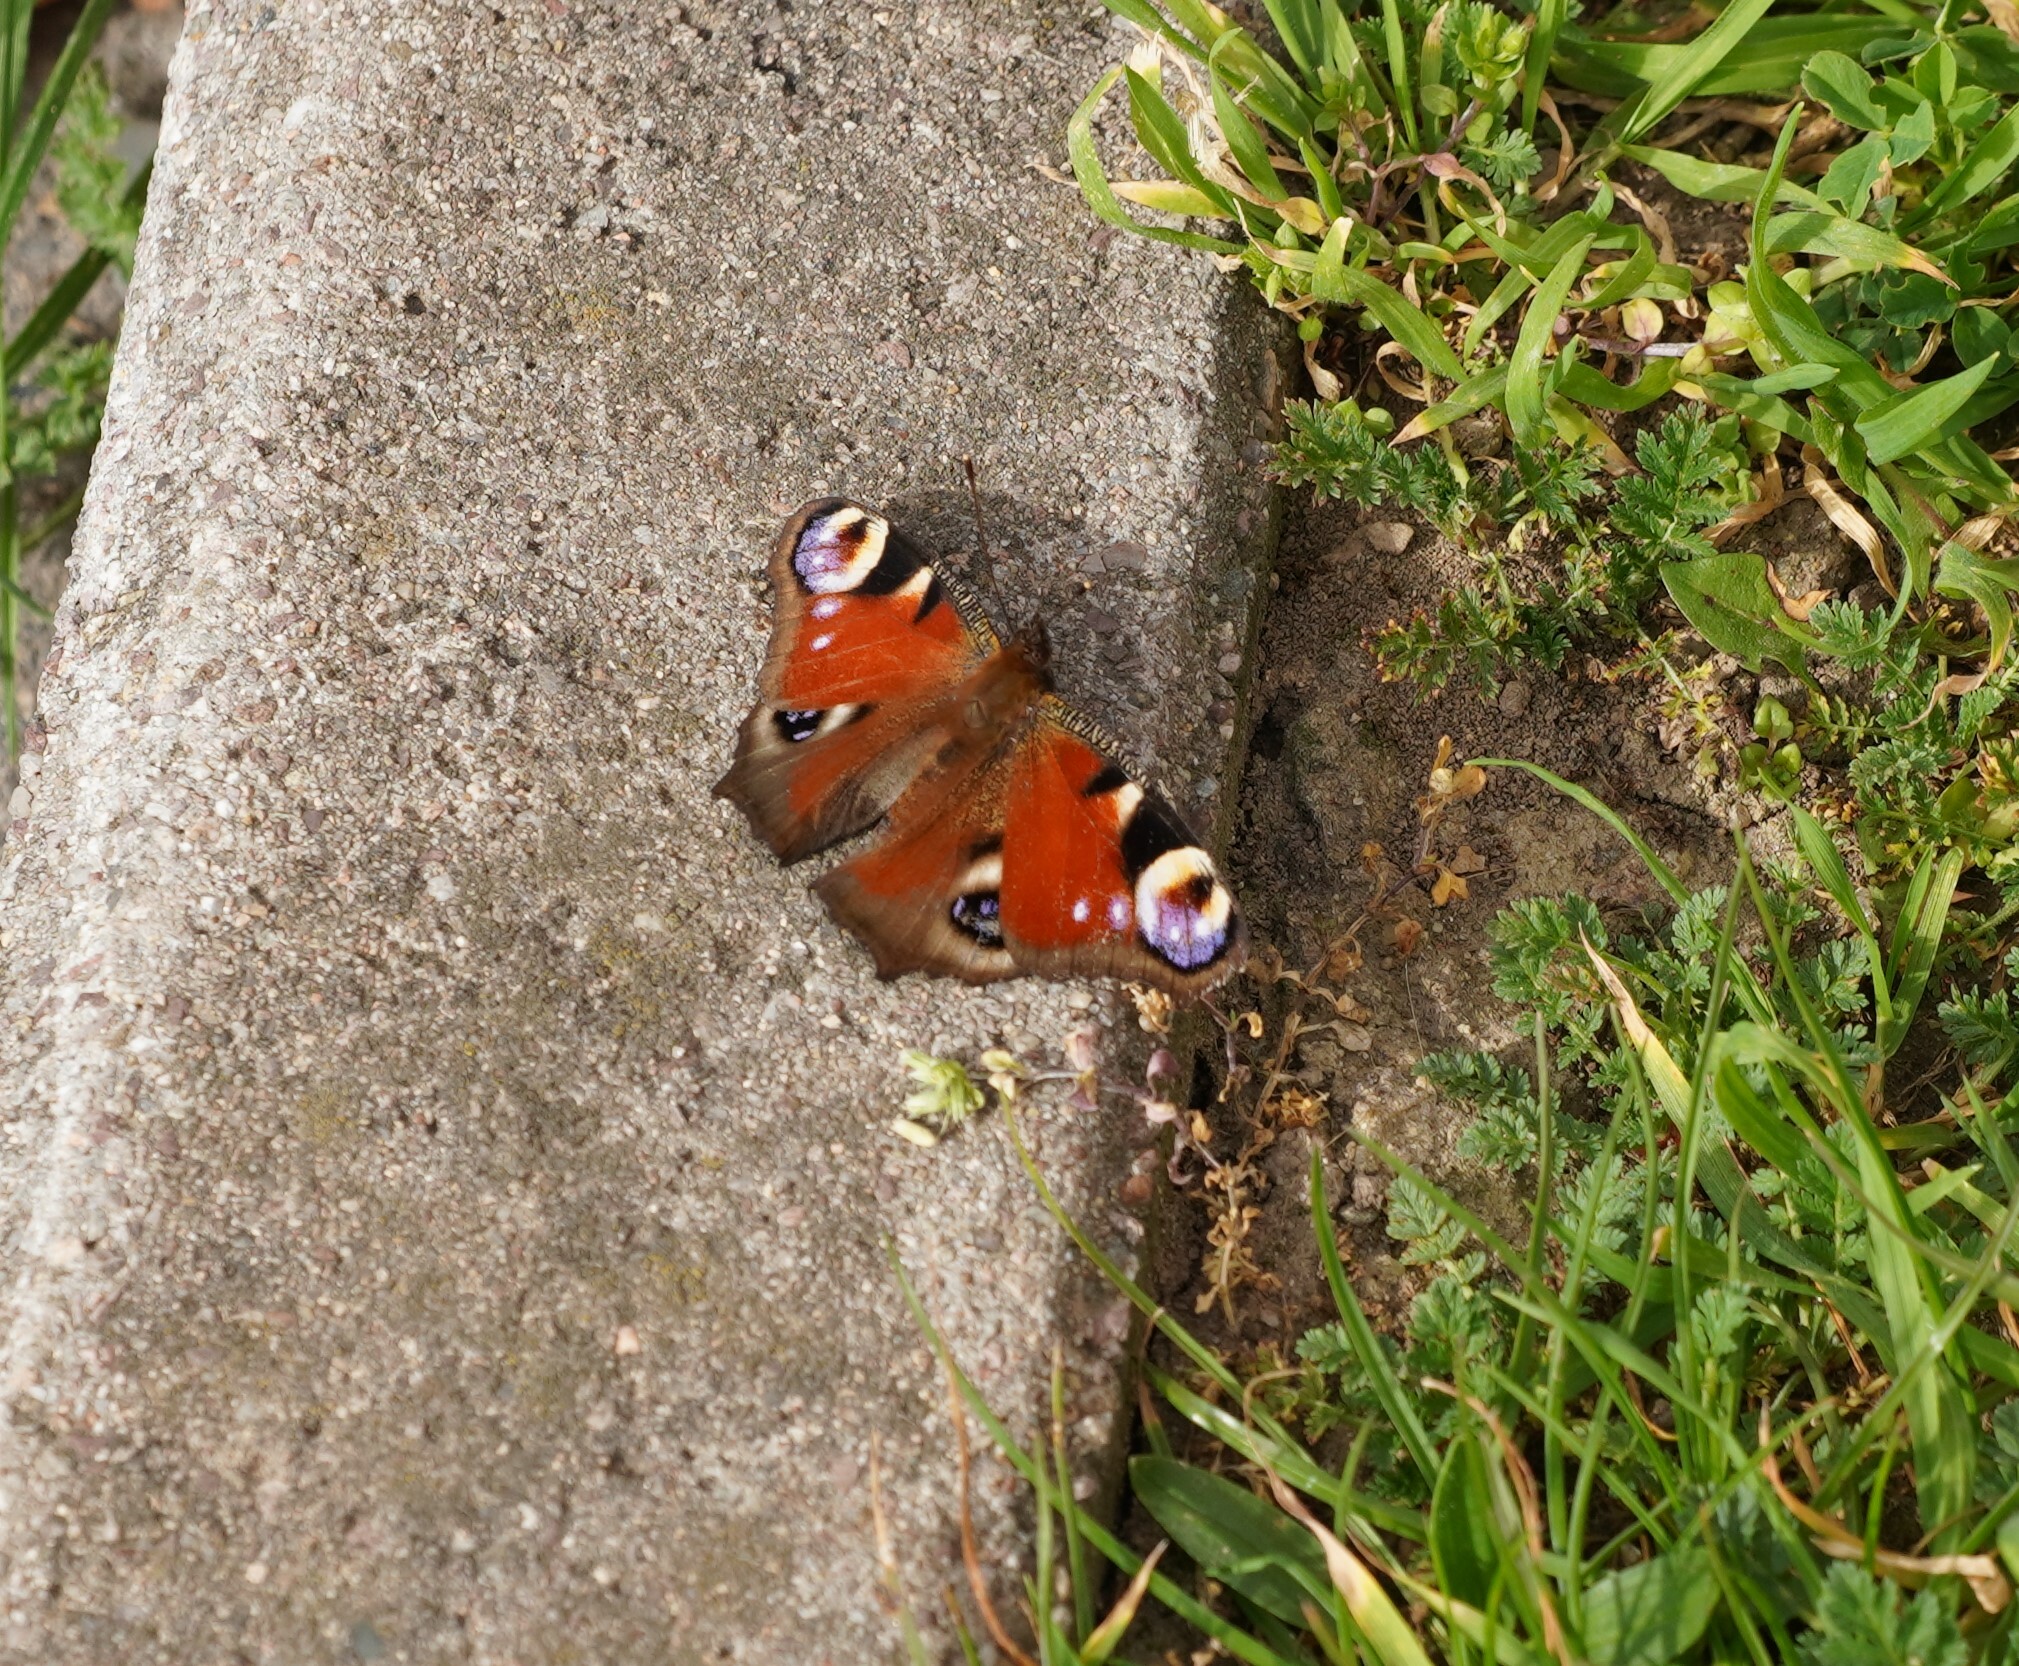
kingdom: Animalia
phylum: Arthropoda
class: Insecta
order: Lepidoptera
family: Nymphalidae
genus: Aglais
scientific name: Aglais io
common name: Peacock
